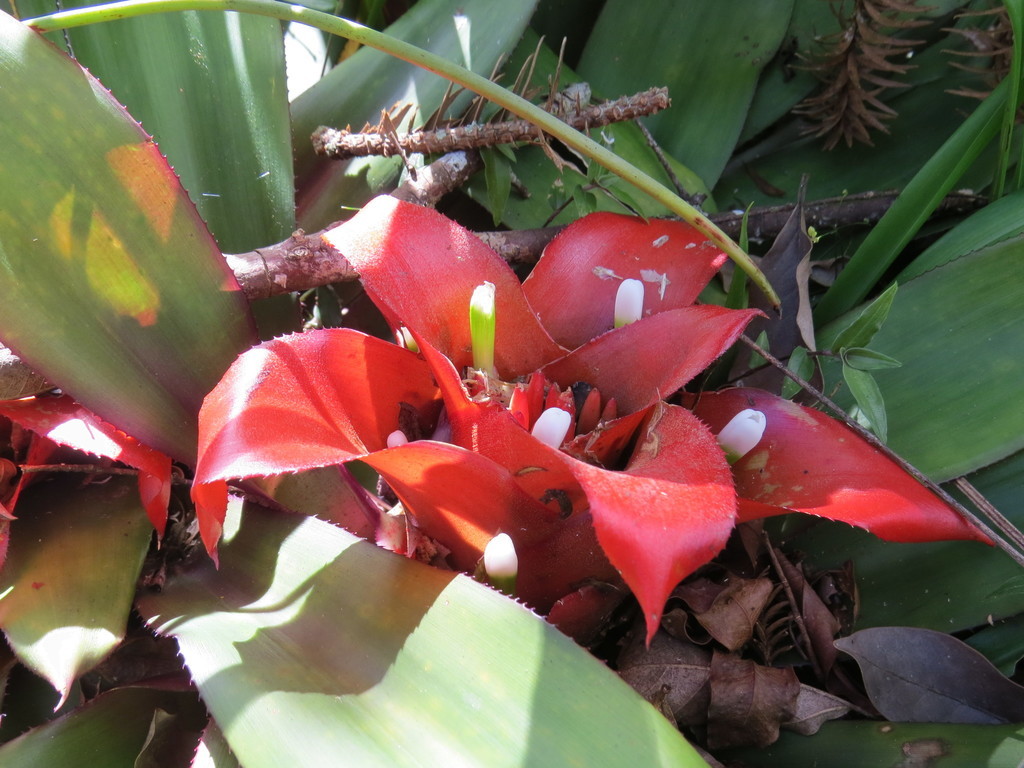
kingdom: Plantae
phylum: Tracheophyta
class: Liliopsida
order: Poales
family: Bromeliaceae
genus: Nidularium
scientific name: Nidularium innocentii
